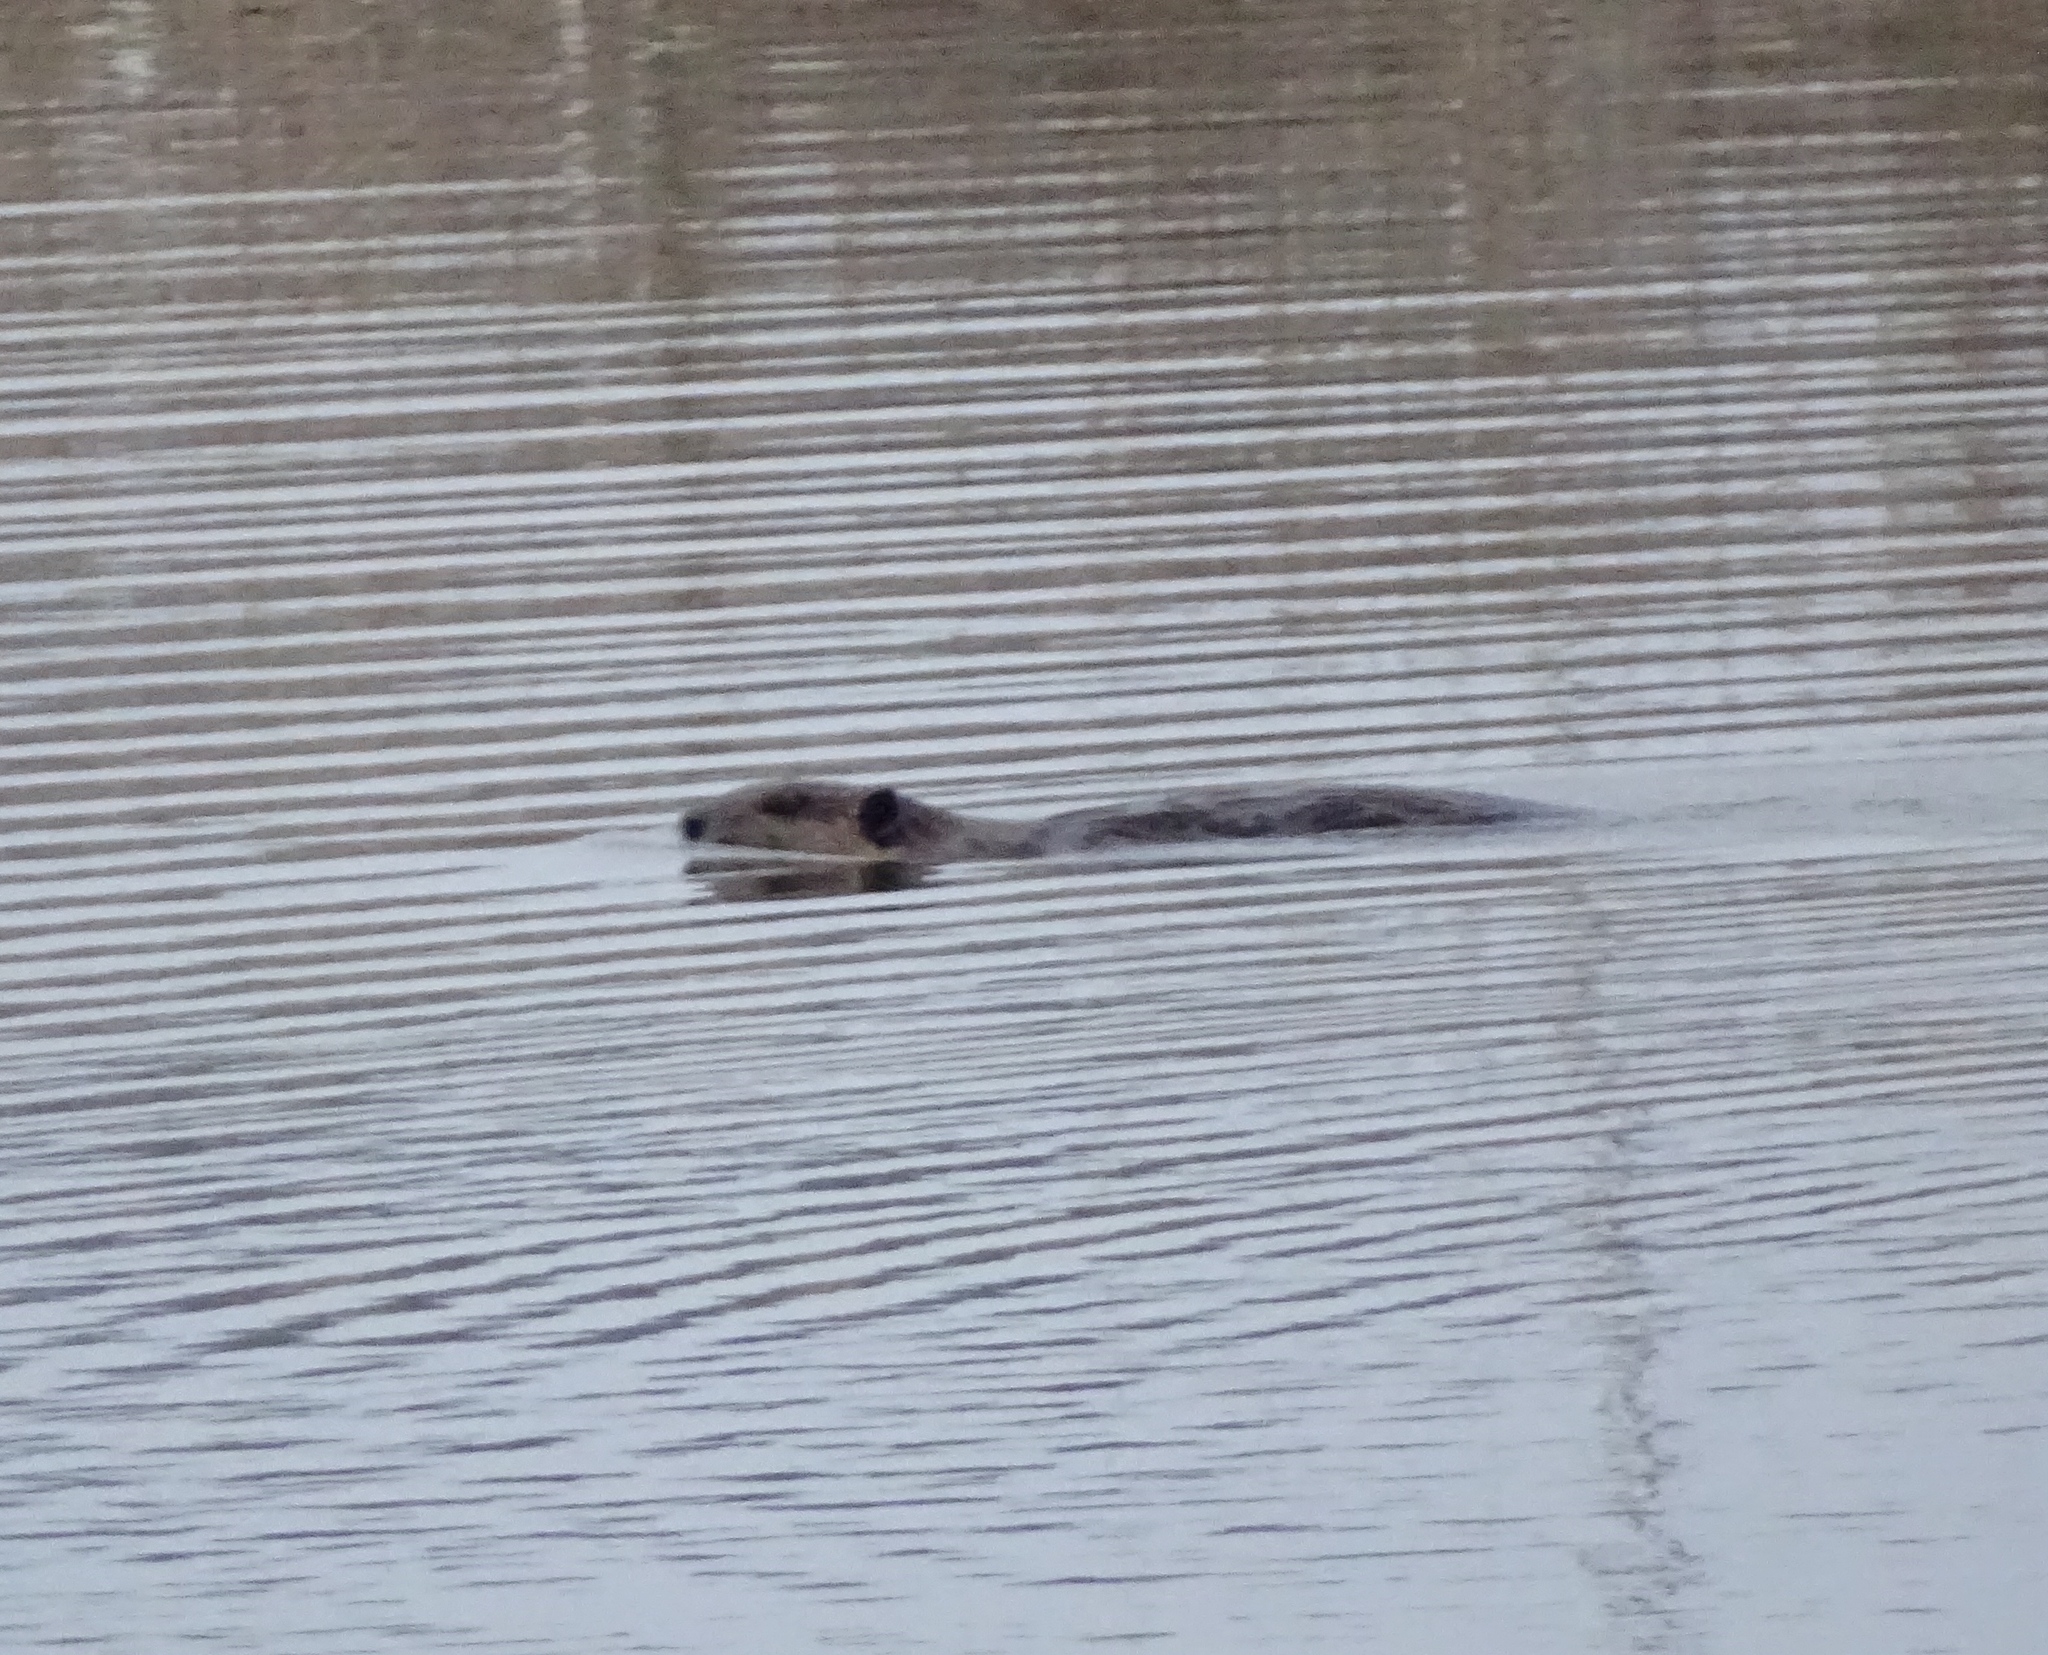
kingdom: Animalia
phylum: Chordata
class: Mammalia
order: Rodentia
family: Castoridae
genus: Castor
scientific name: Castor canadensis
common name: American beaver
